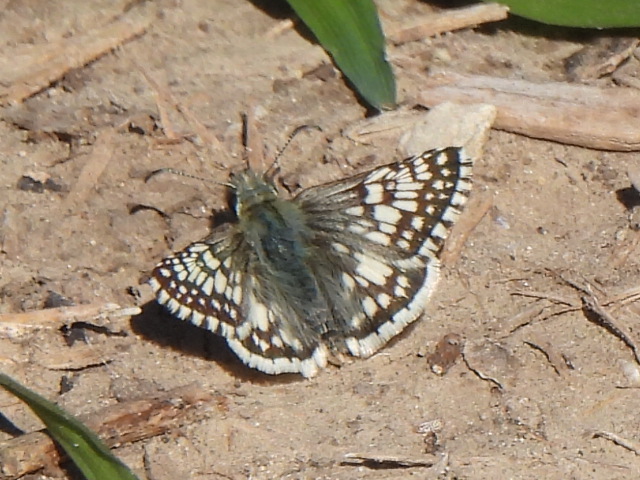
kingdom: Animalia
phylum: Arthropoda
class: Insecta
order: Lepidoptera
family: Hesperiidae
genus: Burnsius
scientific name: Burnsius
